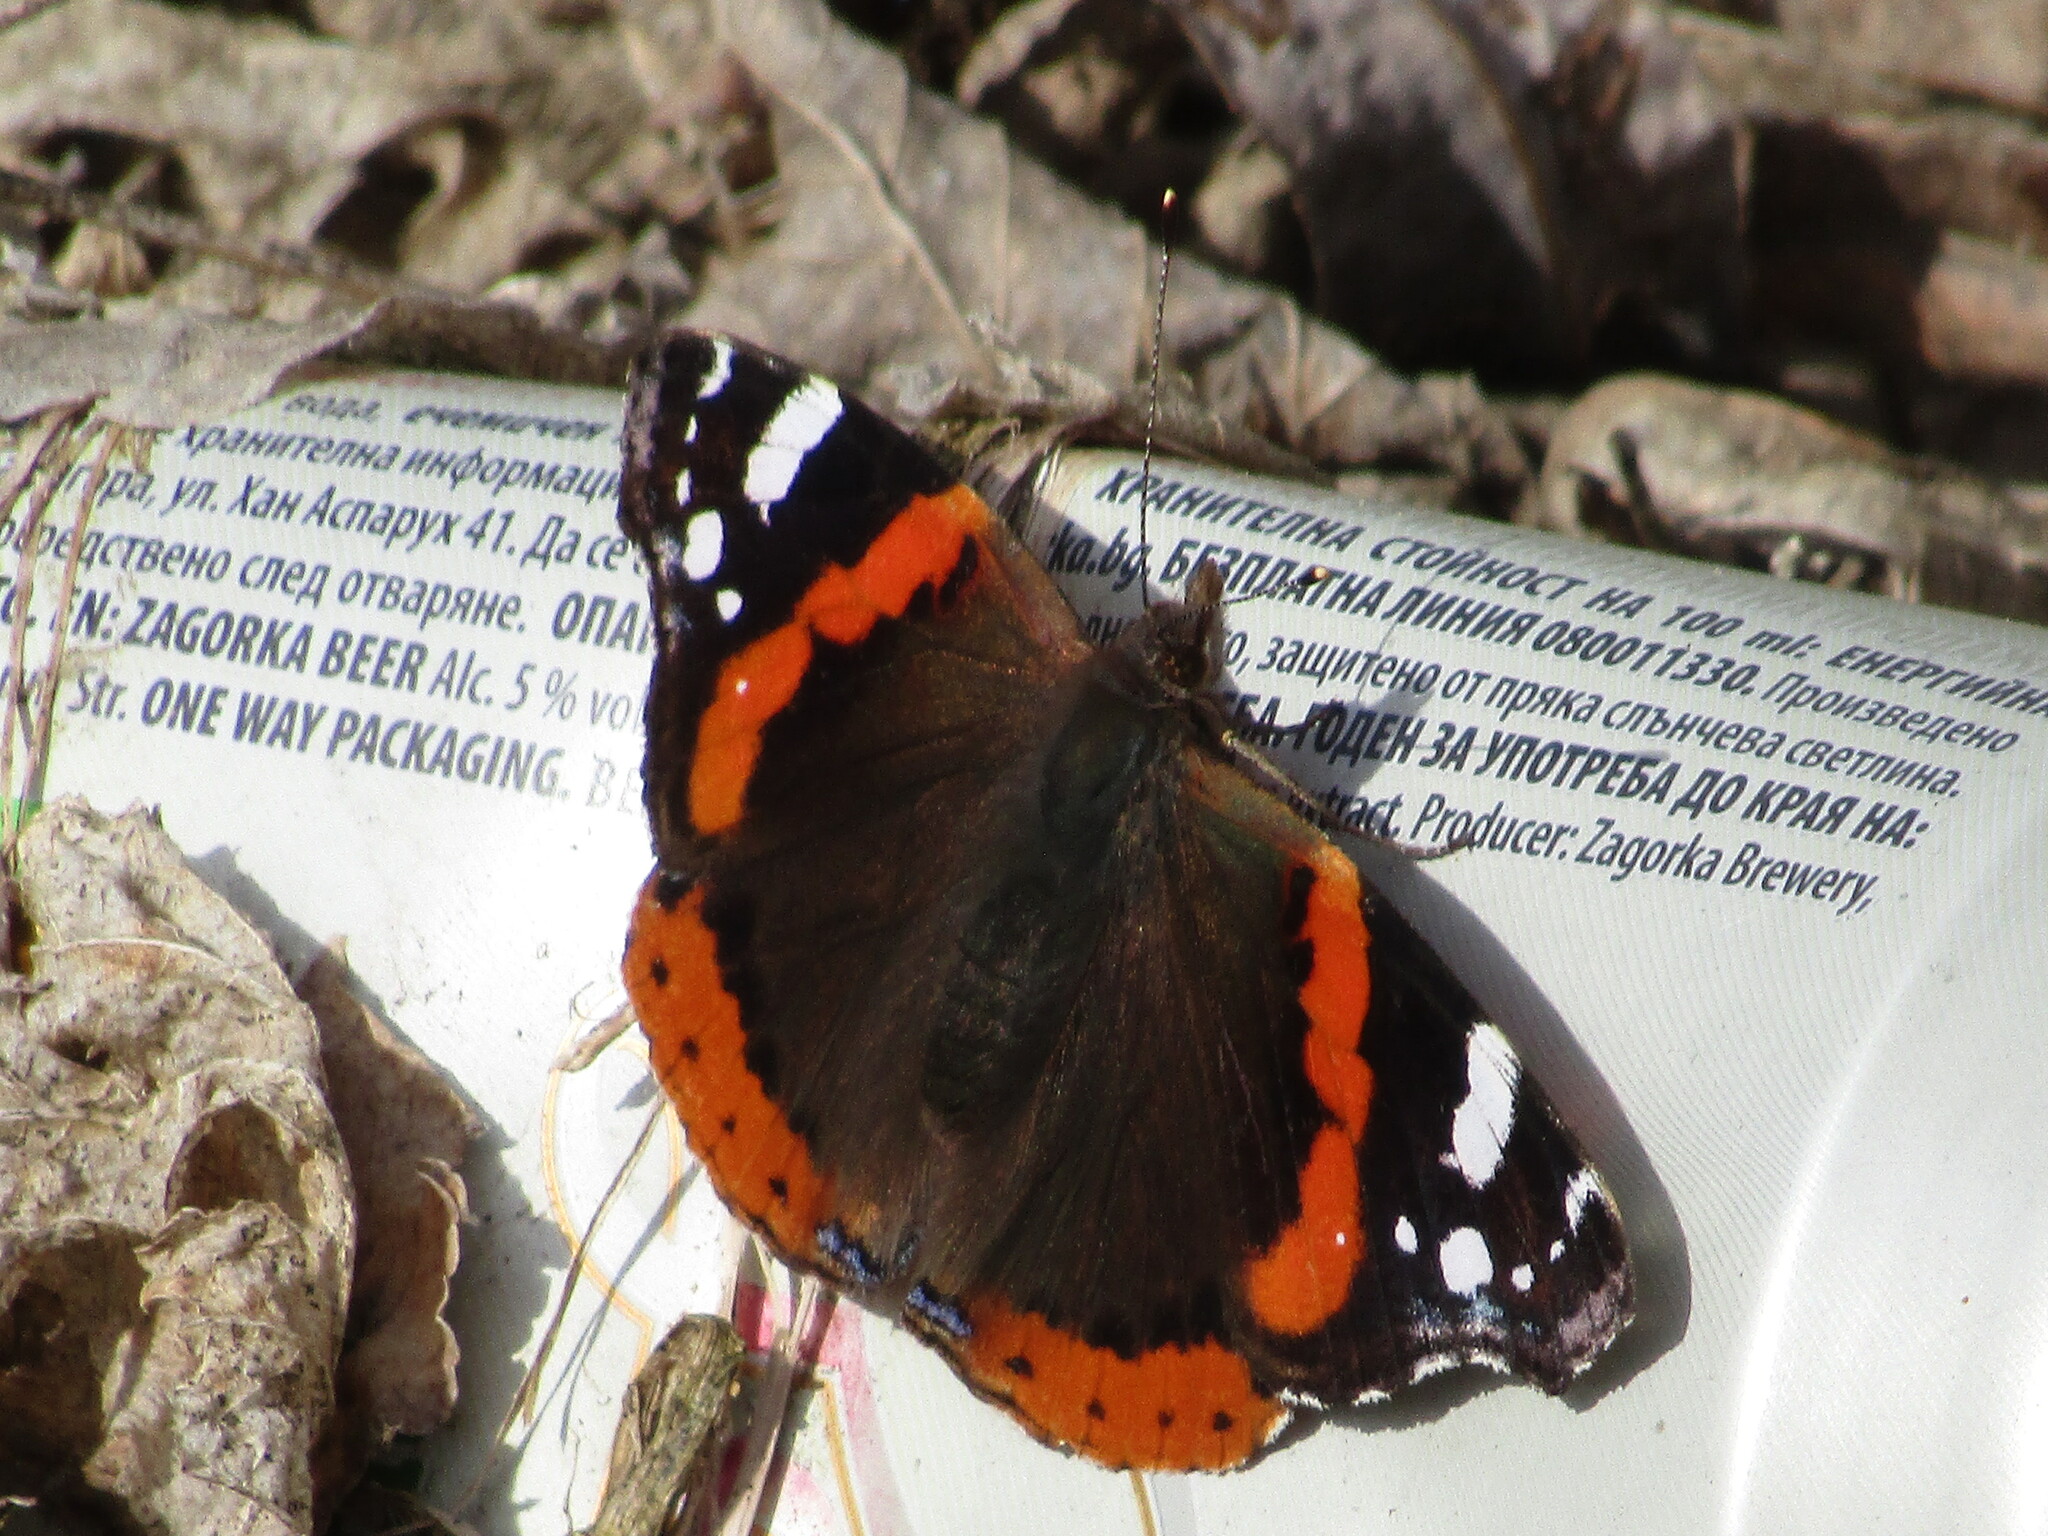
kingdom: Animalia
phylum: Arthropoda
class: Insecta
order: Lepidoptera
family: Nymphalidae
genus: Vanessa
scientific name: Vanessa atalanta
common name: Red admiral
